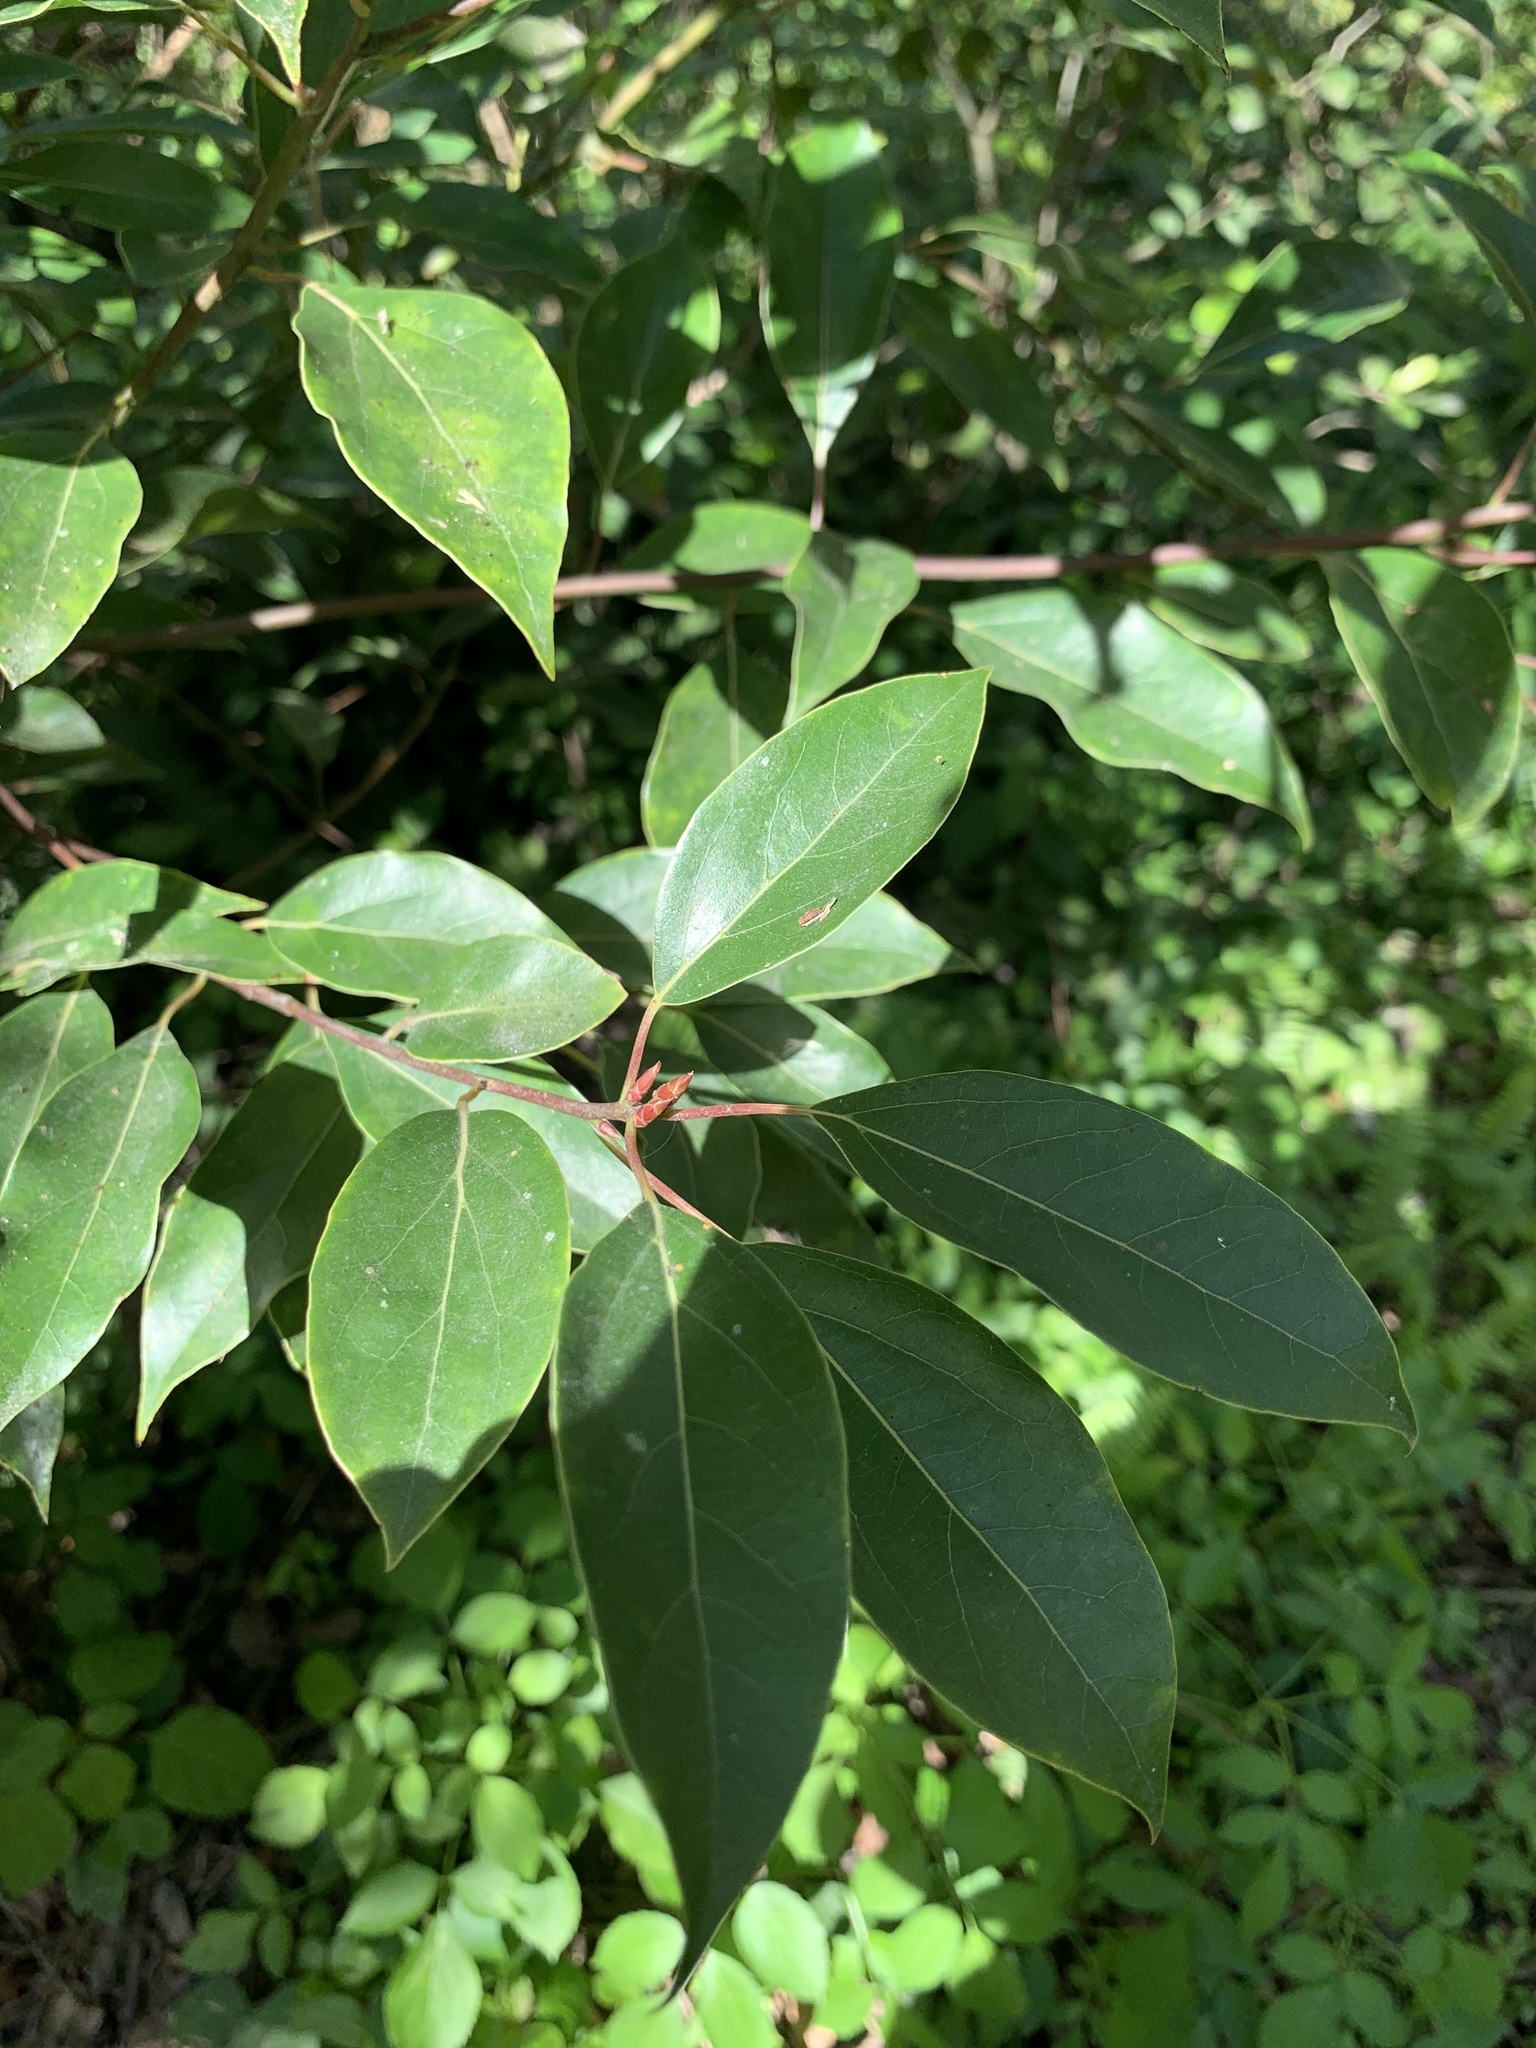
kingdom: Plantae
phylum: Tracheophyta
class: Magnoliopsida
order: Laurales
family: Lauraceae
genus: Cinnamomum
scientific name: Cinnamomum camphora
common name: Camphortree
